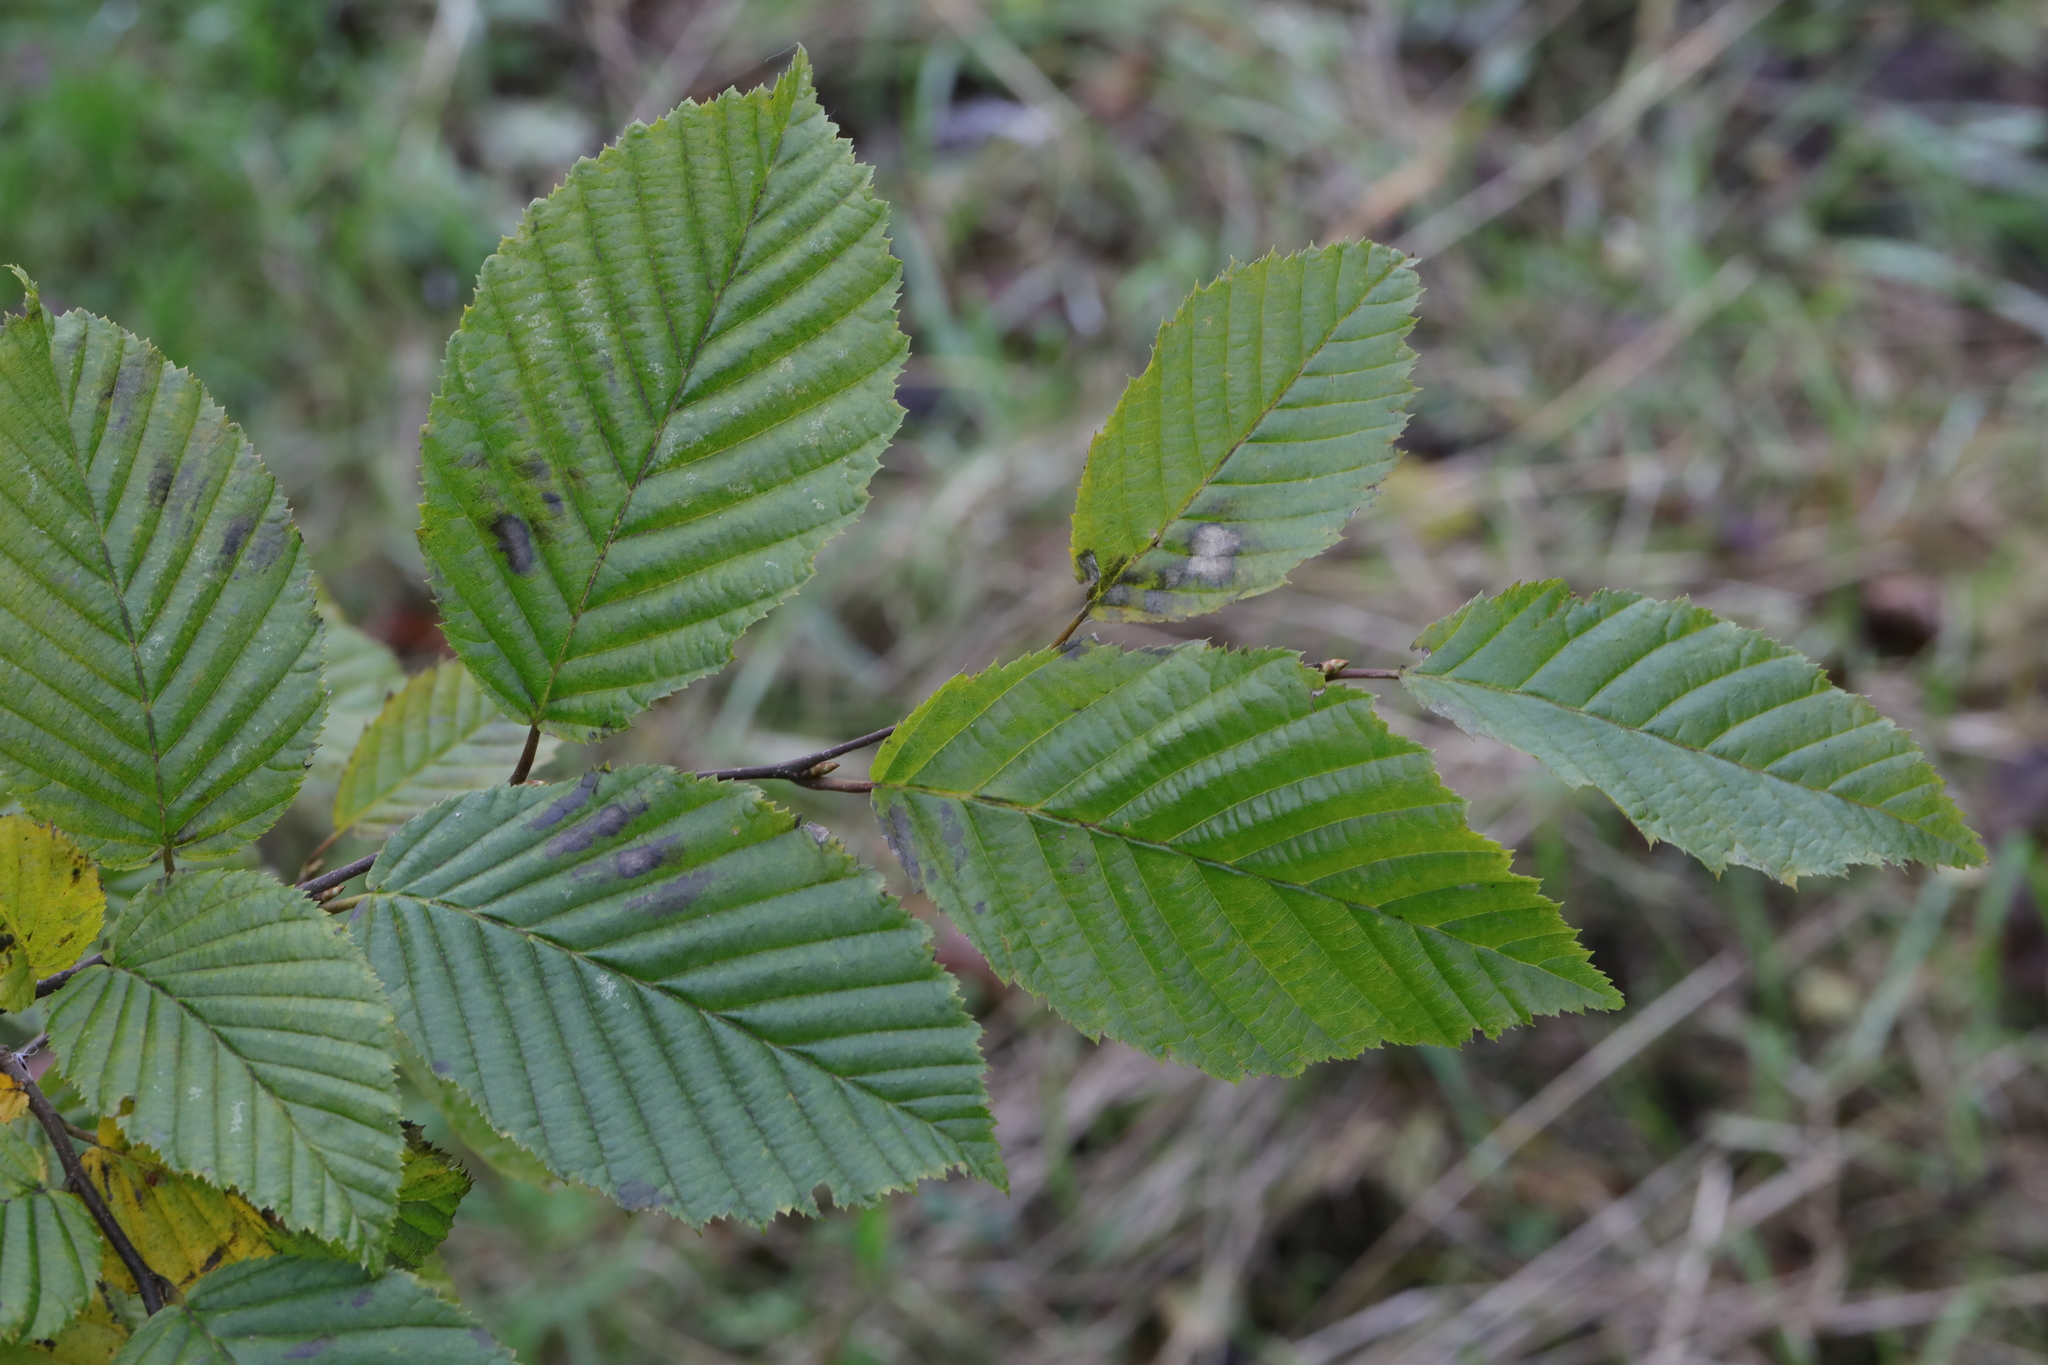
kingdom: Plantae
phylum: Tracheophyta
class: Magnoliopsida
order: Fagales
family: Betulaceae
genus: Carpinus
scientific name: Carpinus betulus
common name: Hornbeam
